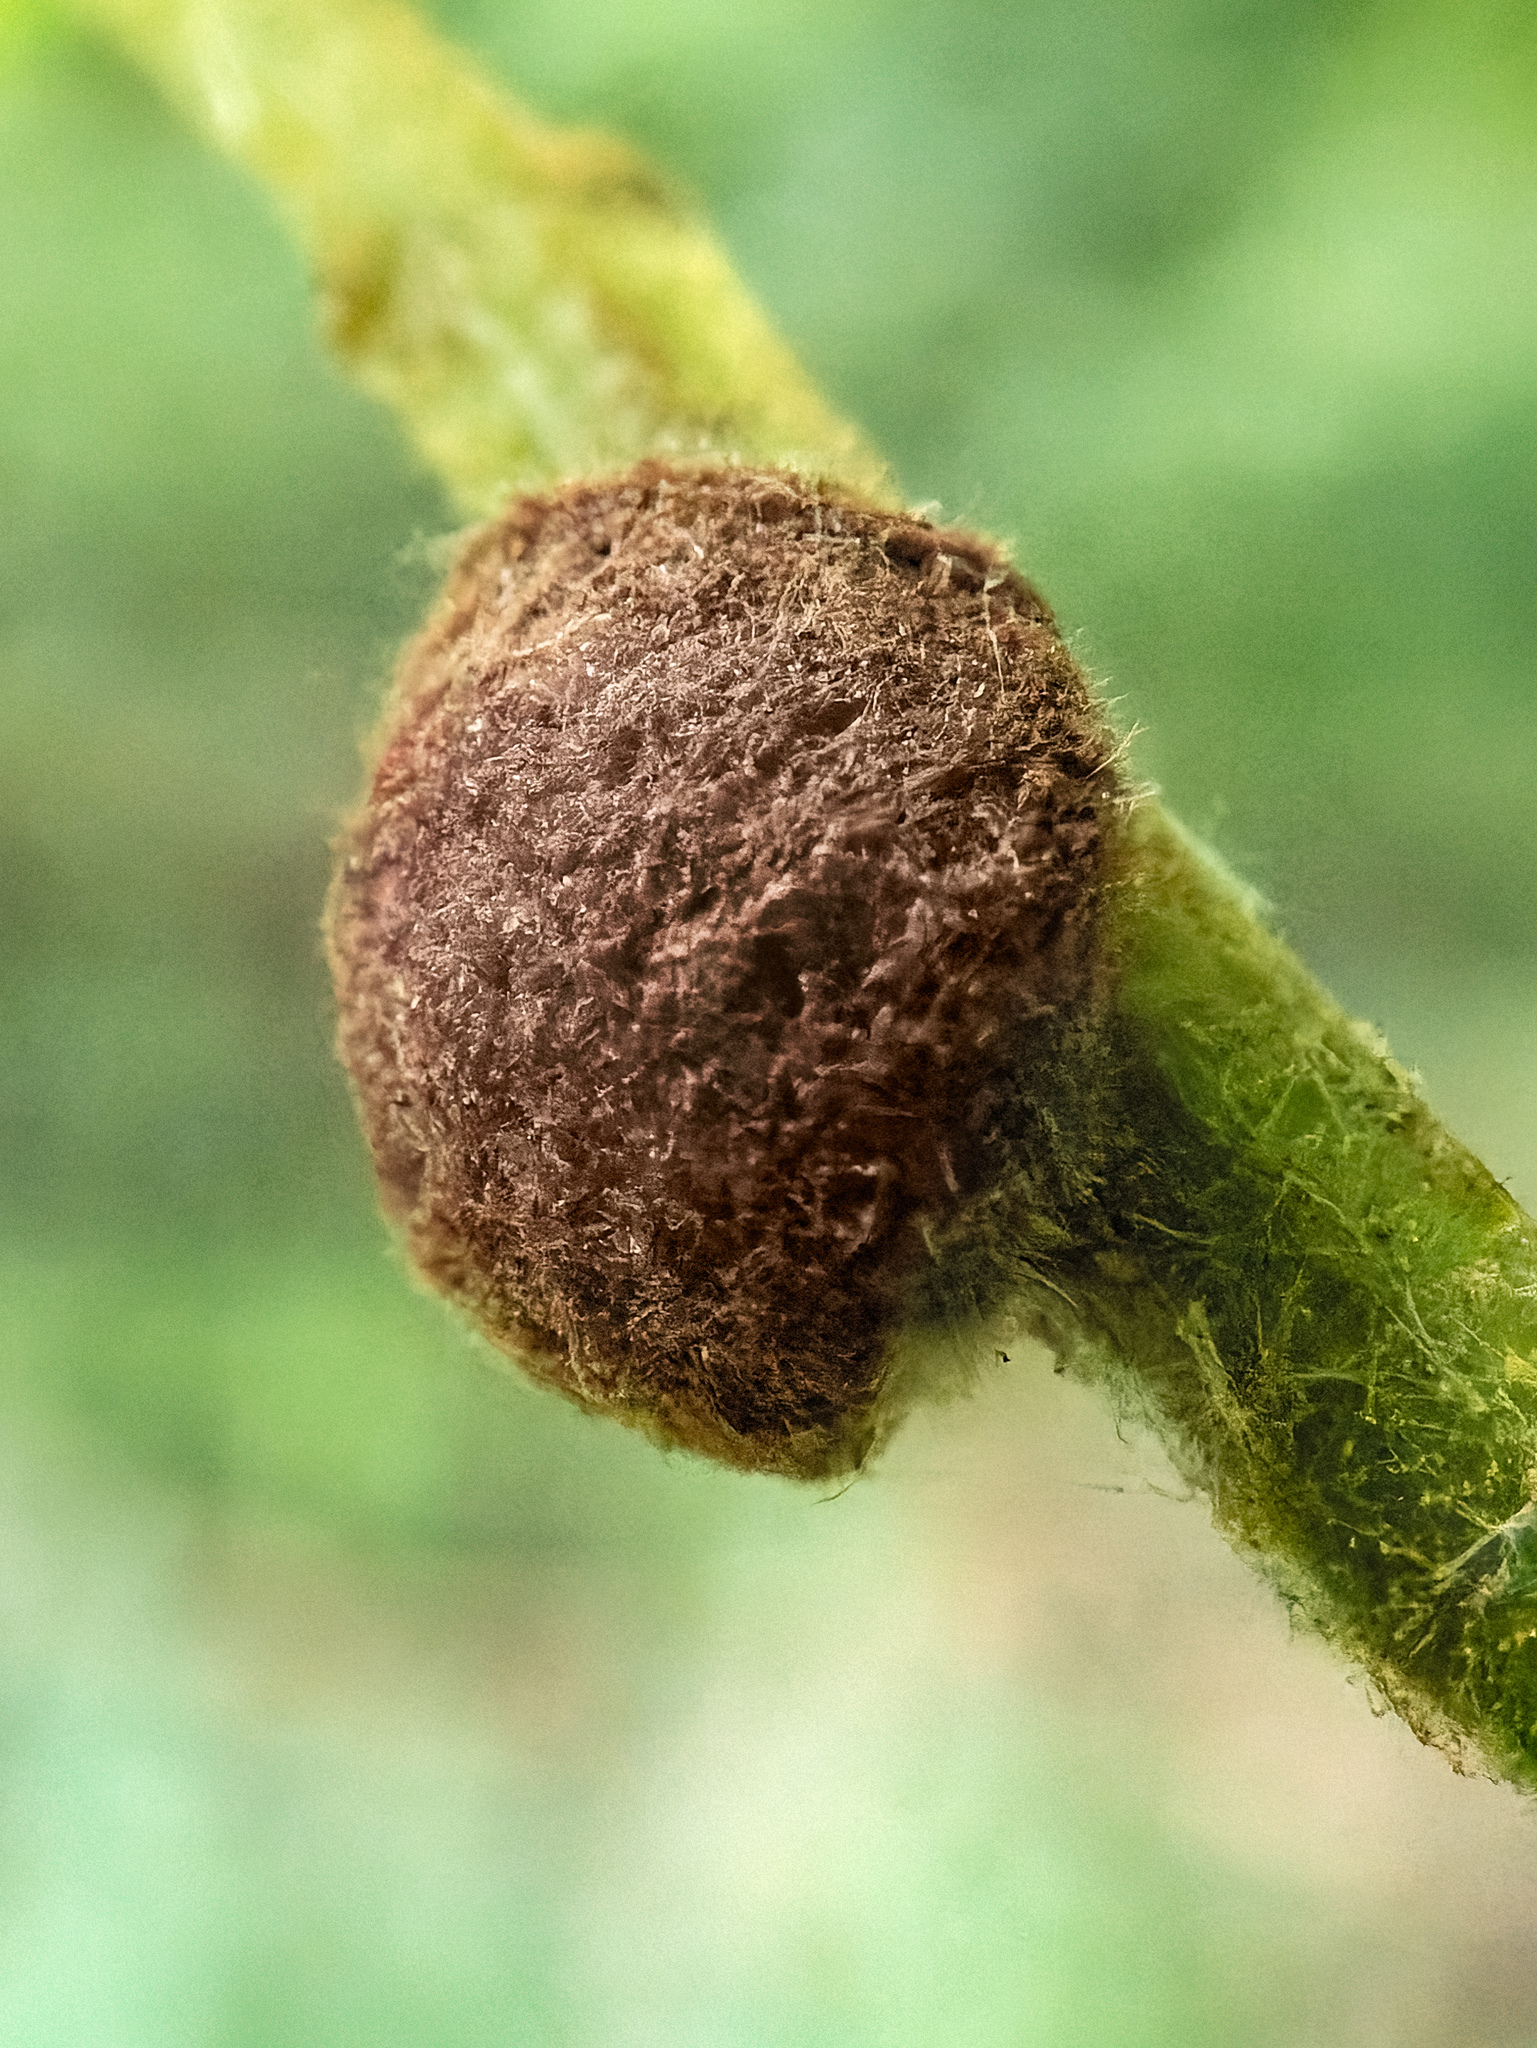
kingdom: Animalia
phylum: Arthropoda
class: Arachnida
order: Trombidiformes
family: Eriophyidae
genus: Aceria
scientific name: Aceria
